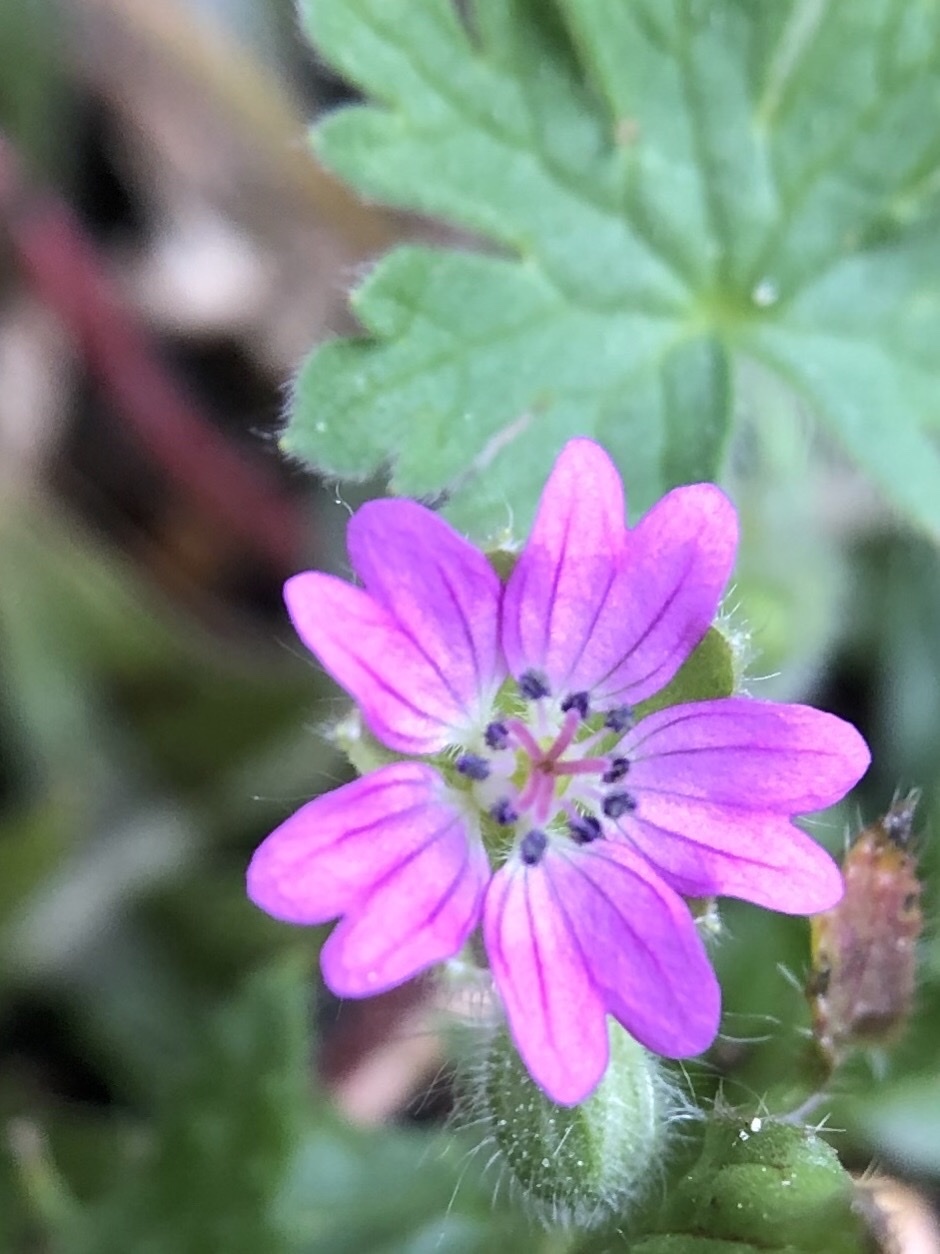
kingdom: Plantae
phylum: Tracheophyta
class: Magnoliopsida
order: Geraniales
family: Geraniaceae
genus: Geranium
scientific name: Geranium molle
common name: Dove's-foot crane's-bill
